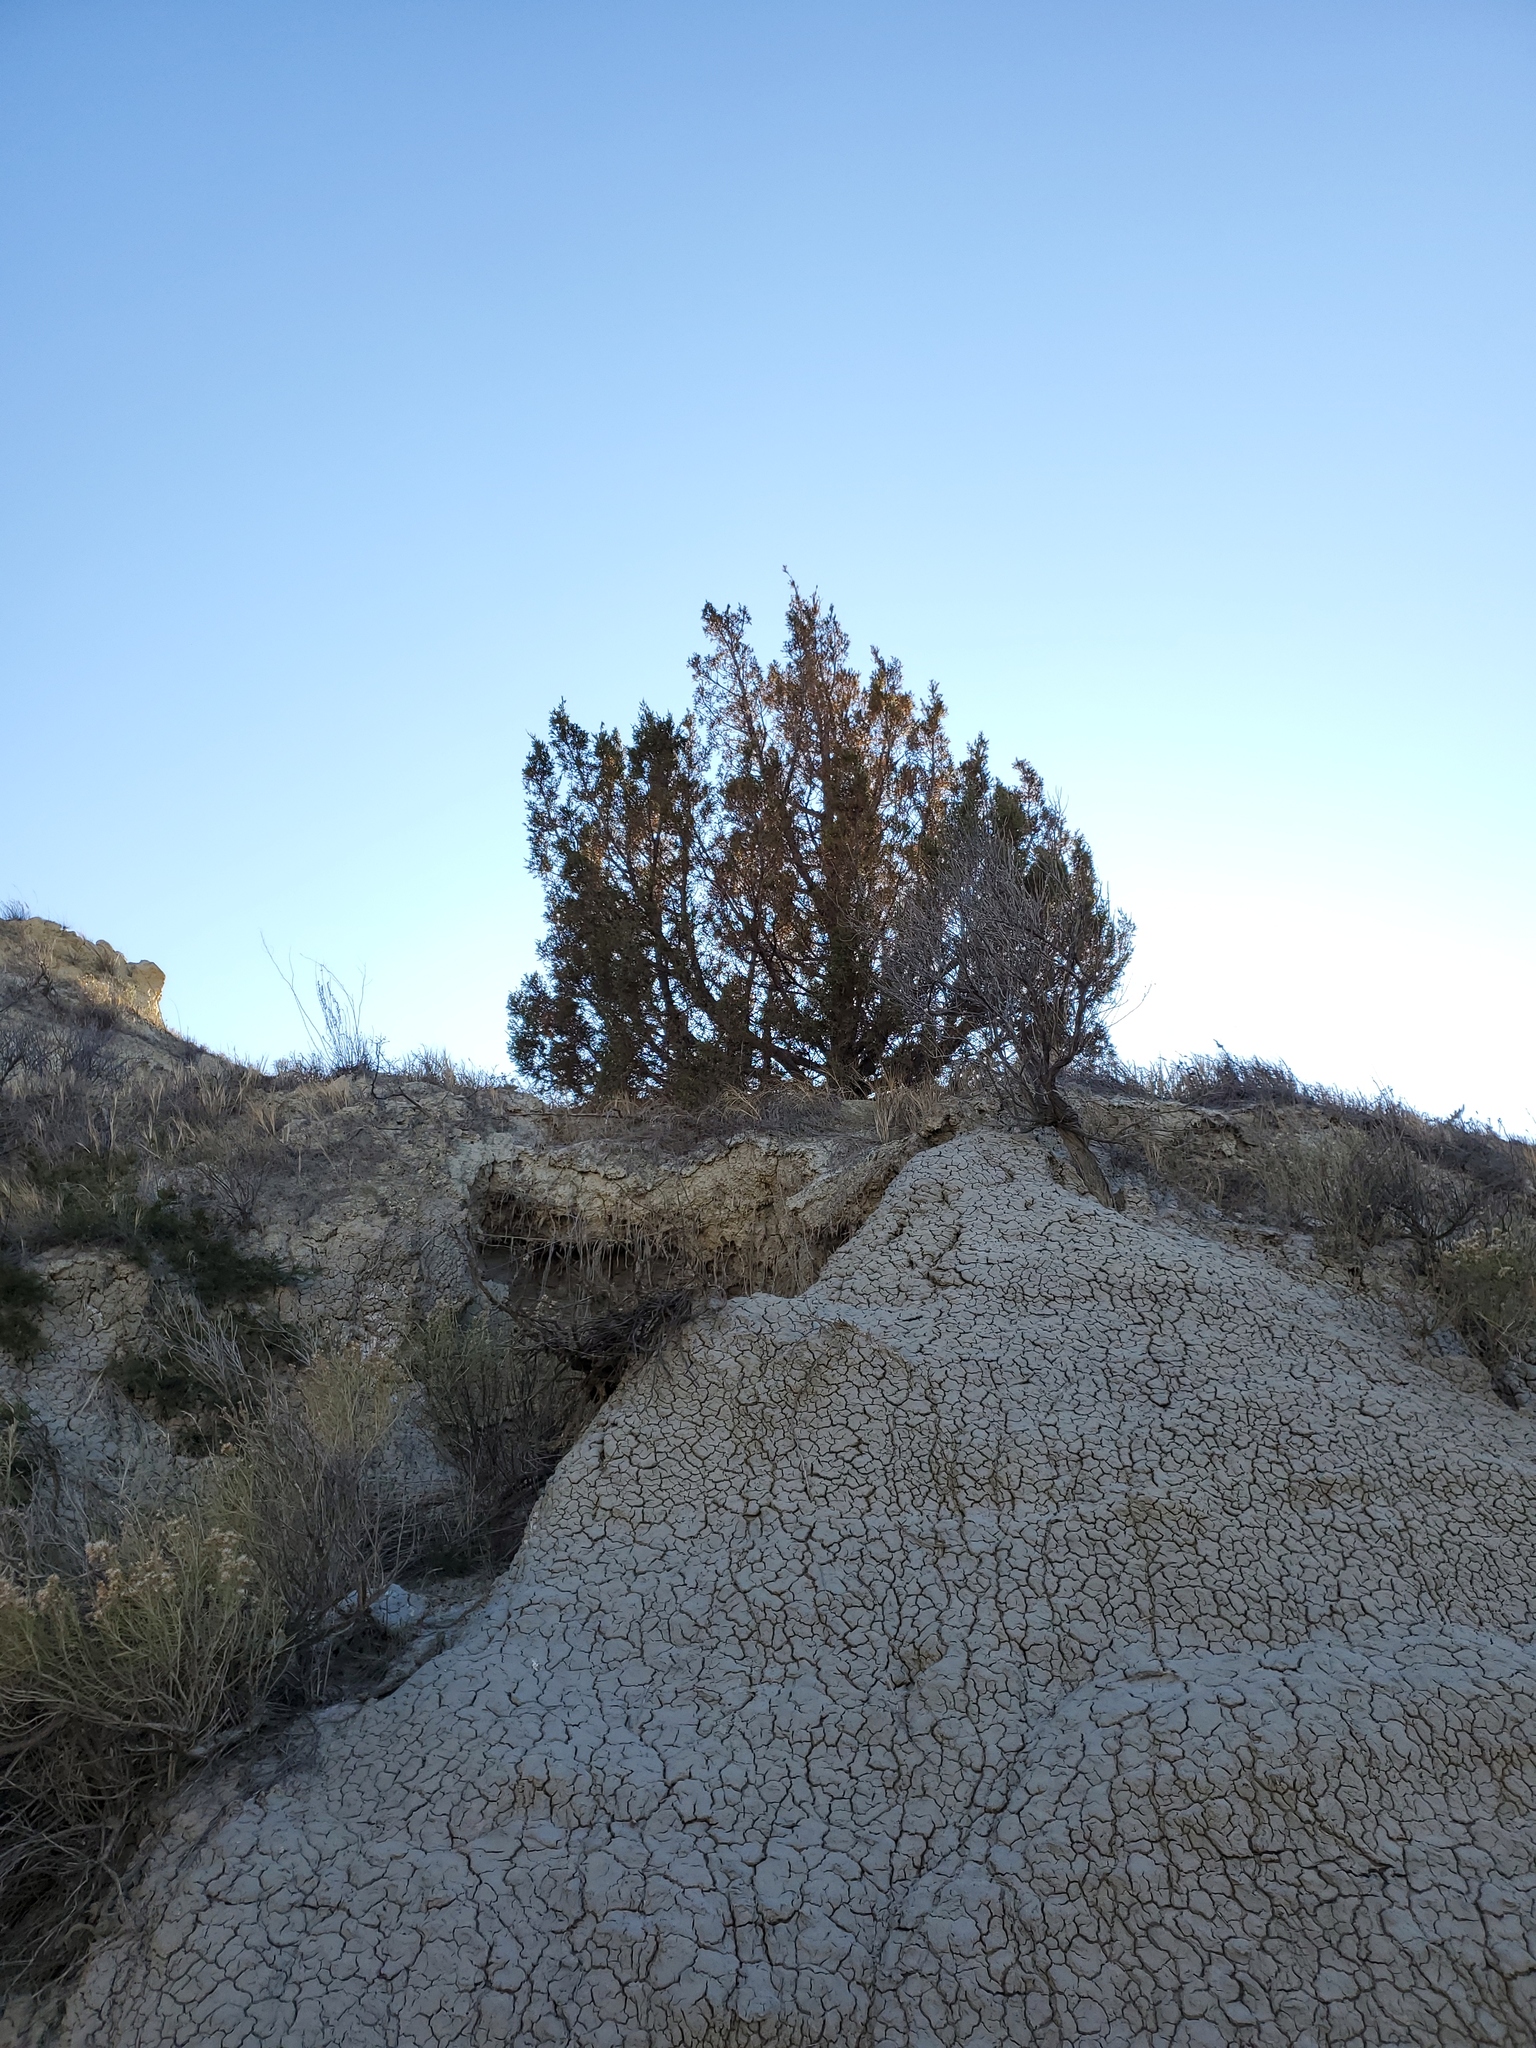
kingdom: Plantae
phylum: Tracheophyta
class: Pinopsida
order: Pinales
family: Cupressaceae
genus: Juniperus
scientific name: Juniperus scopulorum
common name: Rocky mountain juniper
